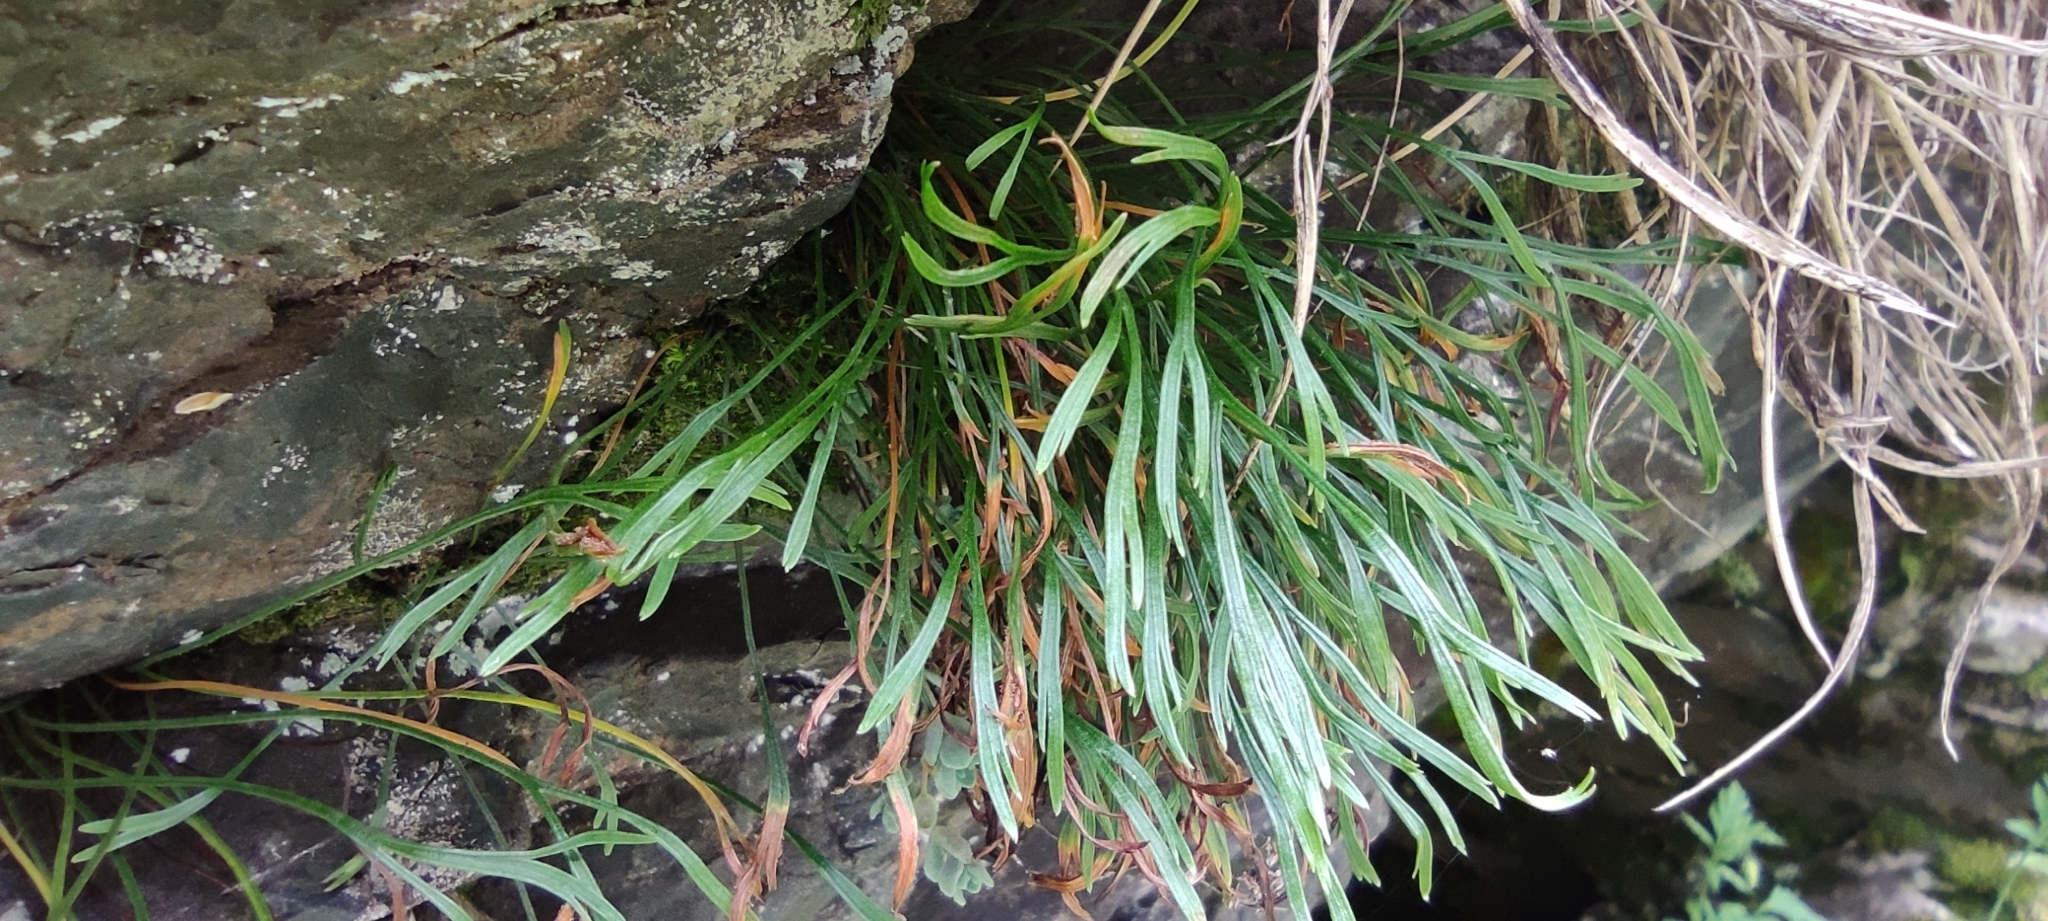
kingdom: Plantae
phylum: Tracheophyta
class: Polypodiopsida
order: Polypodiales
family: Aspleniaceae
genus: Asplenium
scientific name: Asplenium septentrionale
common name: Forked spleenwort
